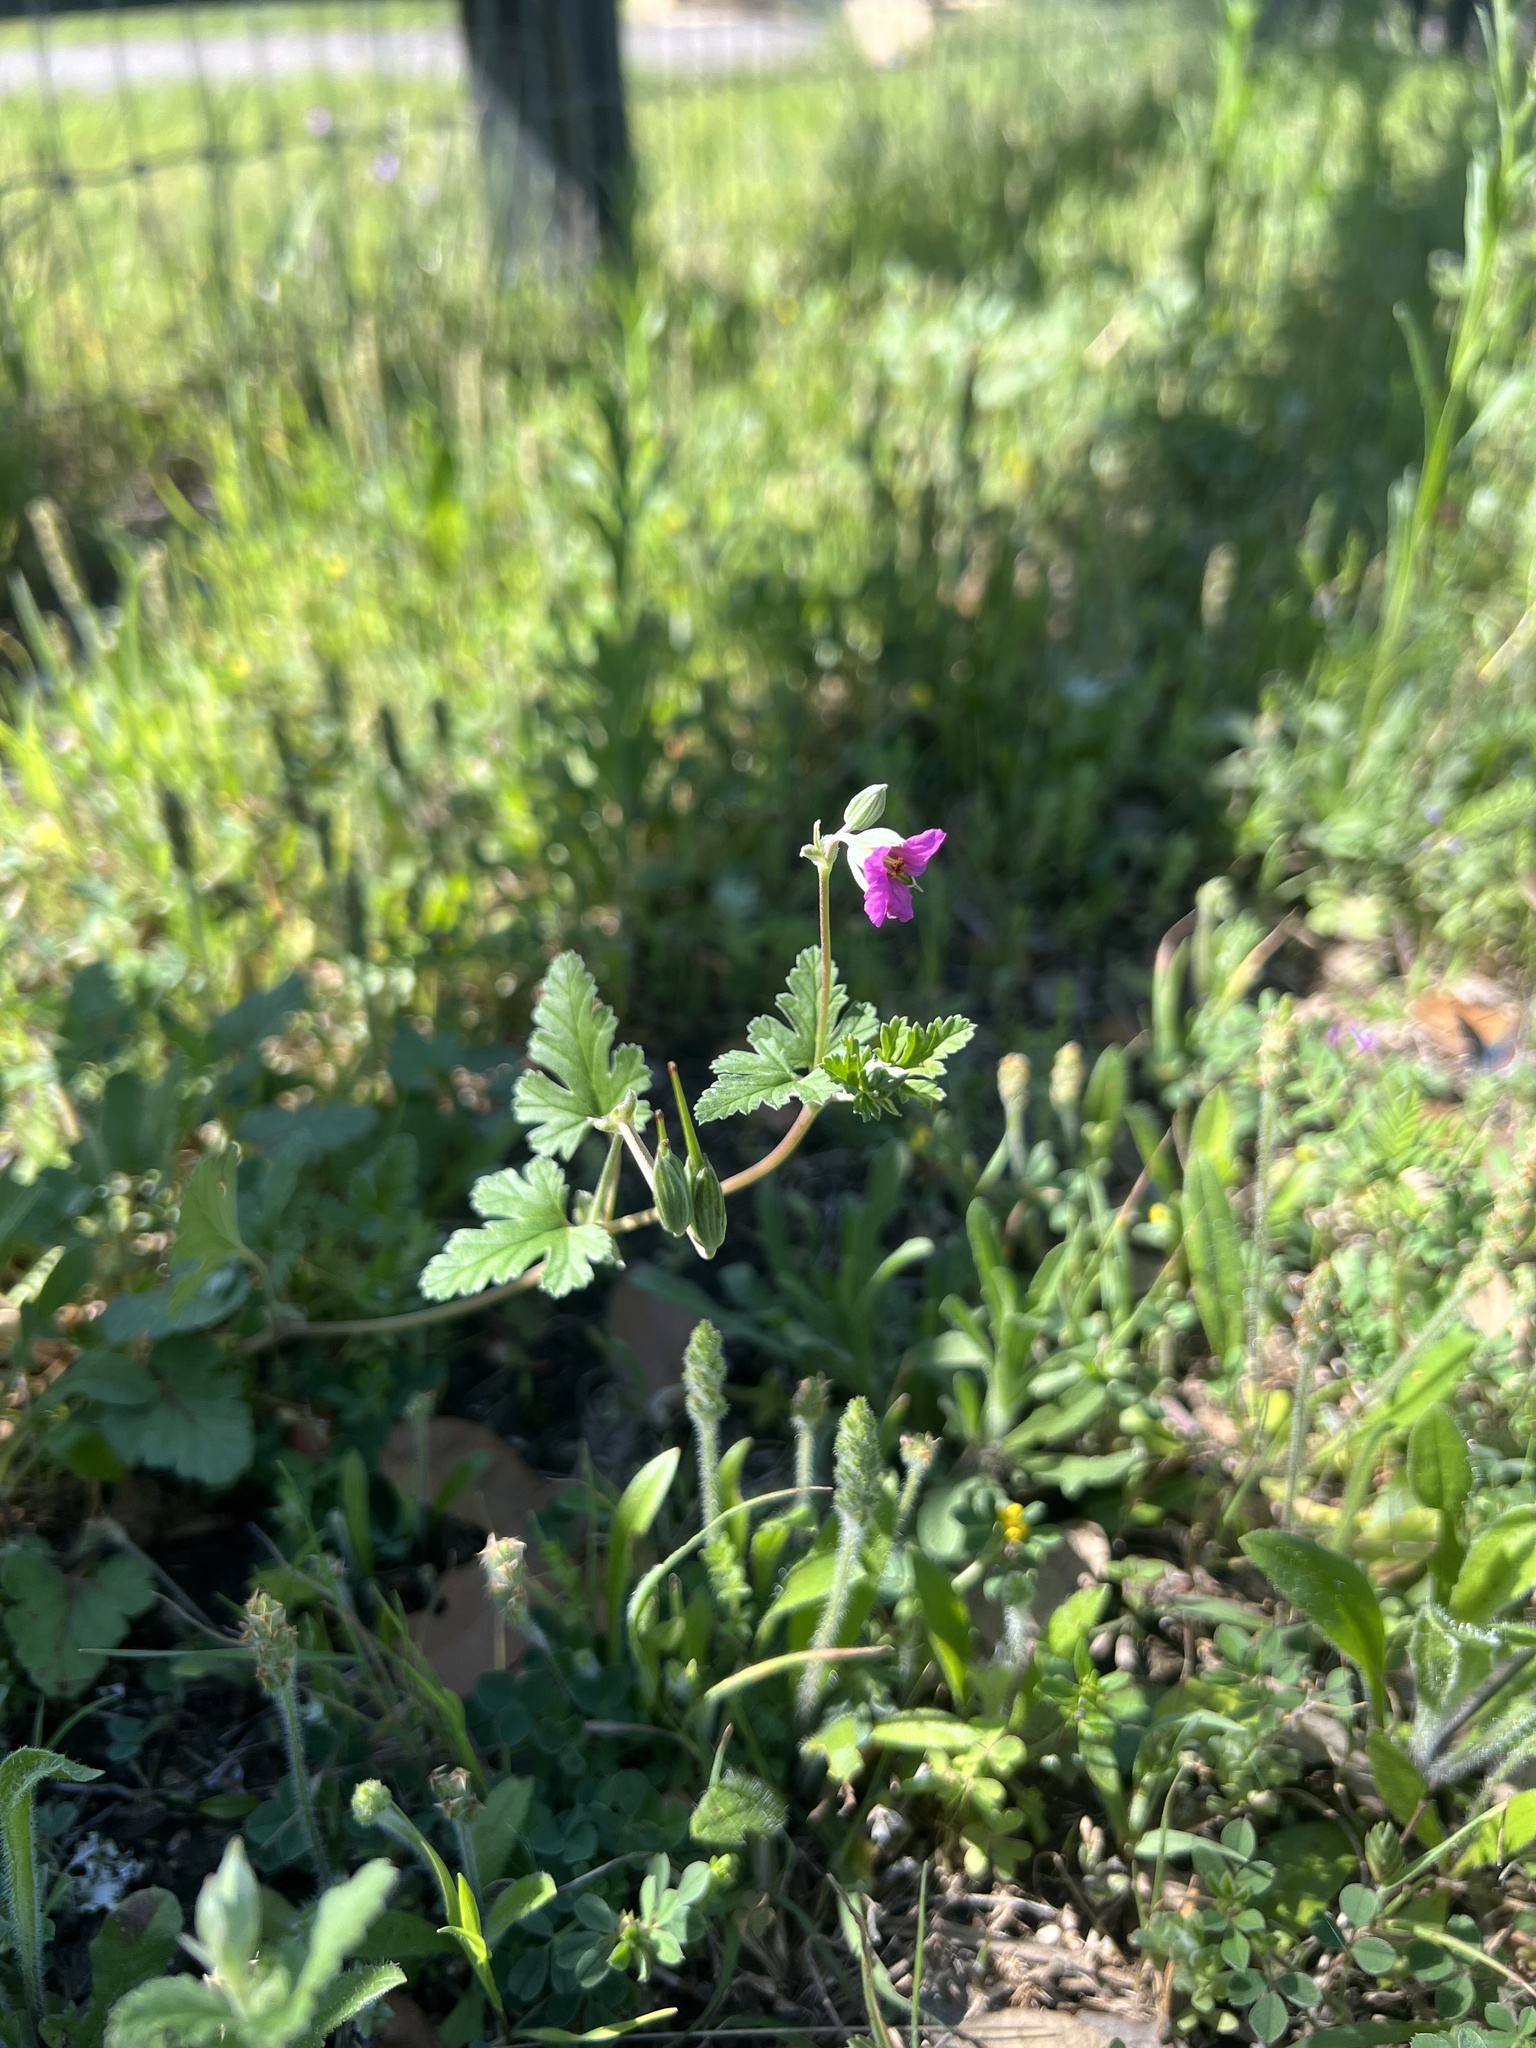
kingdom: Plantae
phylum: Tracheophyta
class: Magnoliopsida
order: Geraniales
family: Geraniaceae
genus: Erodium
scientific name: Erodium texanum
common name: Texas stork's-bill
